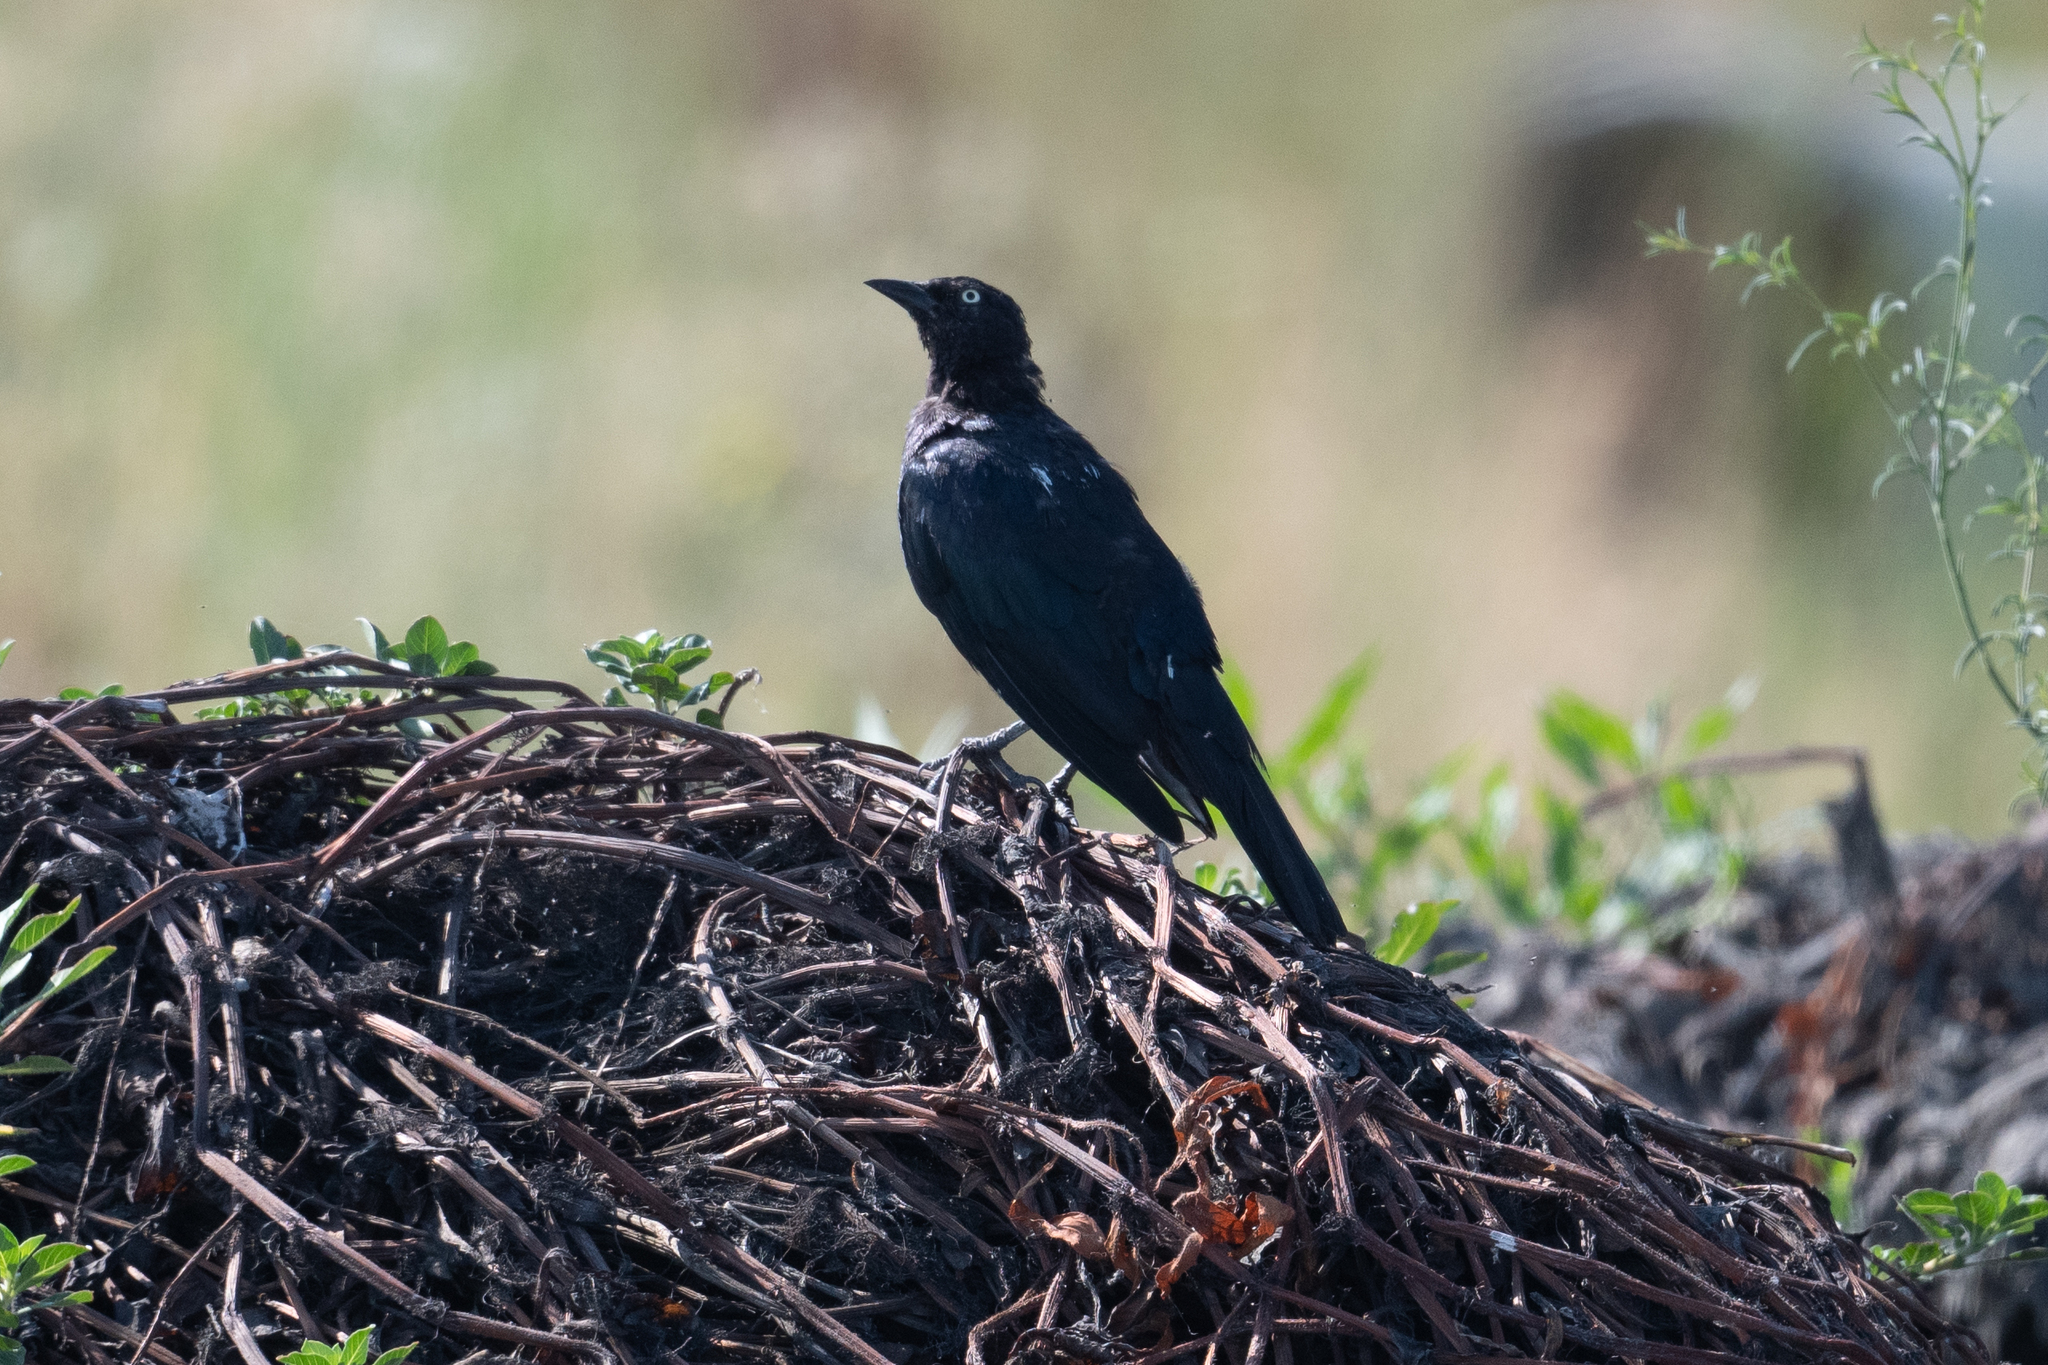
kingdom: Animalia
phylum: Chordata
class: Aves
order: Passeriformes
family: Icteridae
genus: Euphagus
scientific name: Euphagus cyanocephalus
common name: Brewer's blackbird
